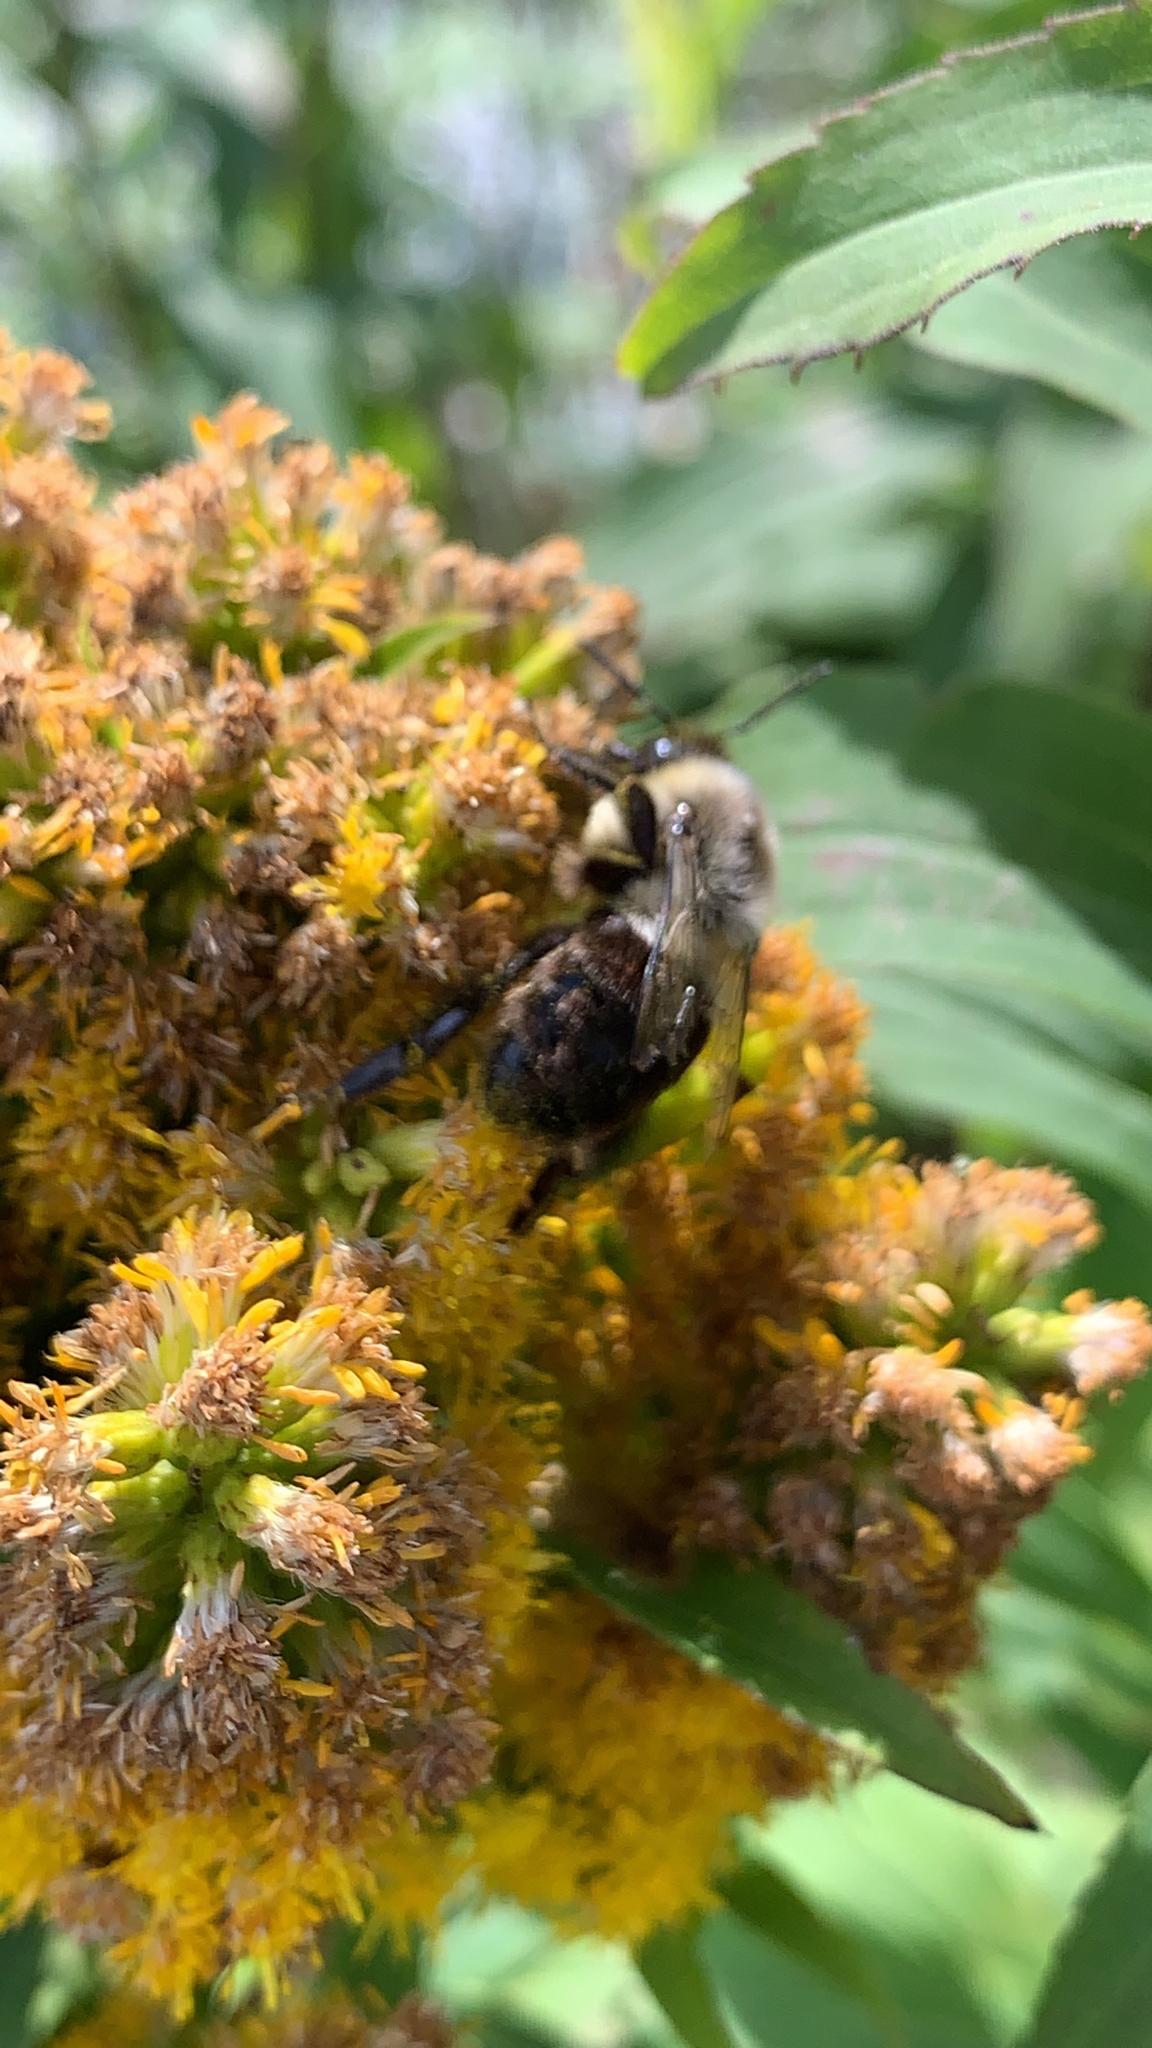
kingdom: Animalia
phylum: Arthropoda
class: Insecta
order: Hymenoptera
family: Apidae
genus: Bombus
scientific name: Bombus impatiens
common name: Common eastern bumble bee
